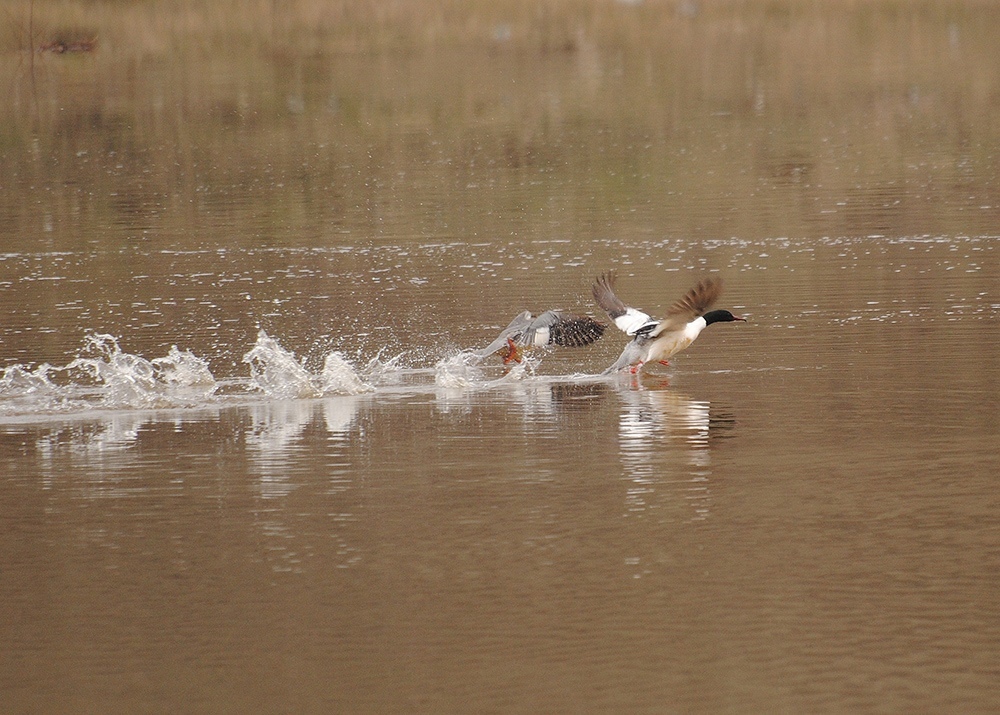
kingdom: Animalia
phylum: Chordata
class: Aves
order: Anseriformes
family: Anatidae
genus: Mergus
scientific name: Mergus merganser
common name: Common merganser
